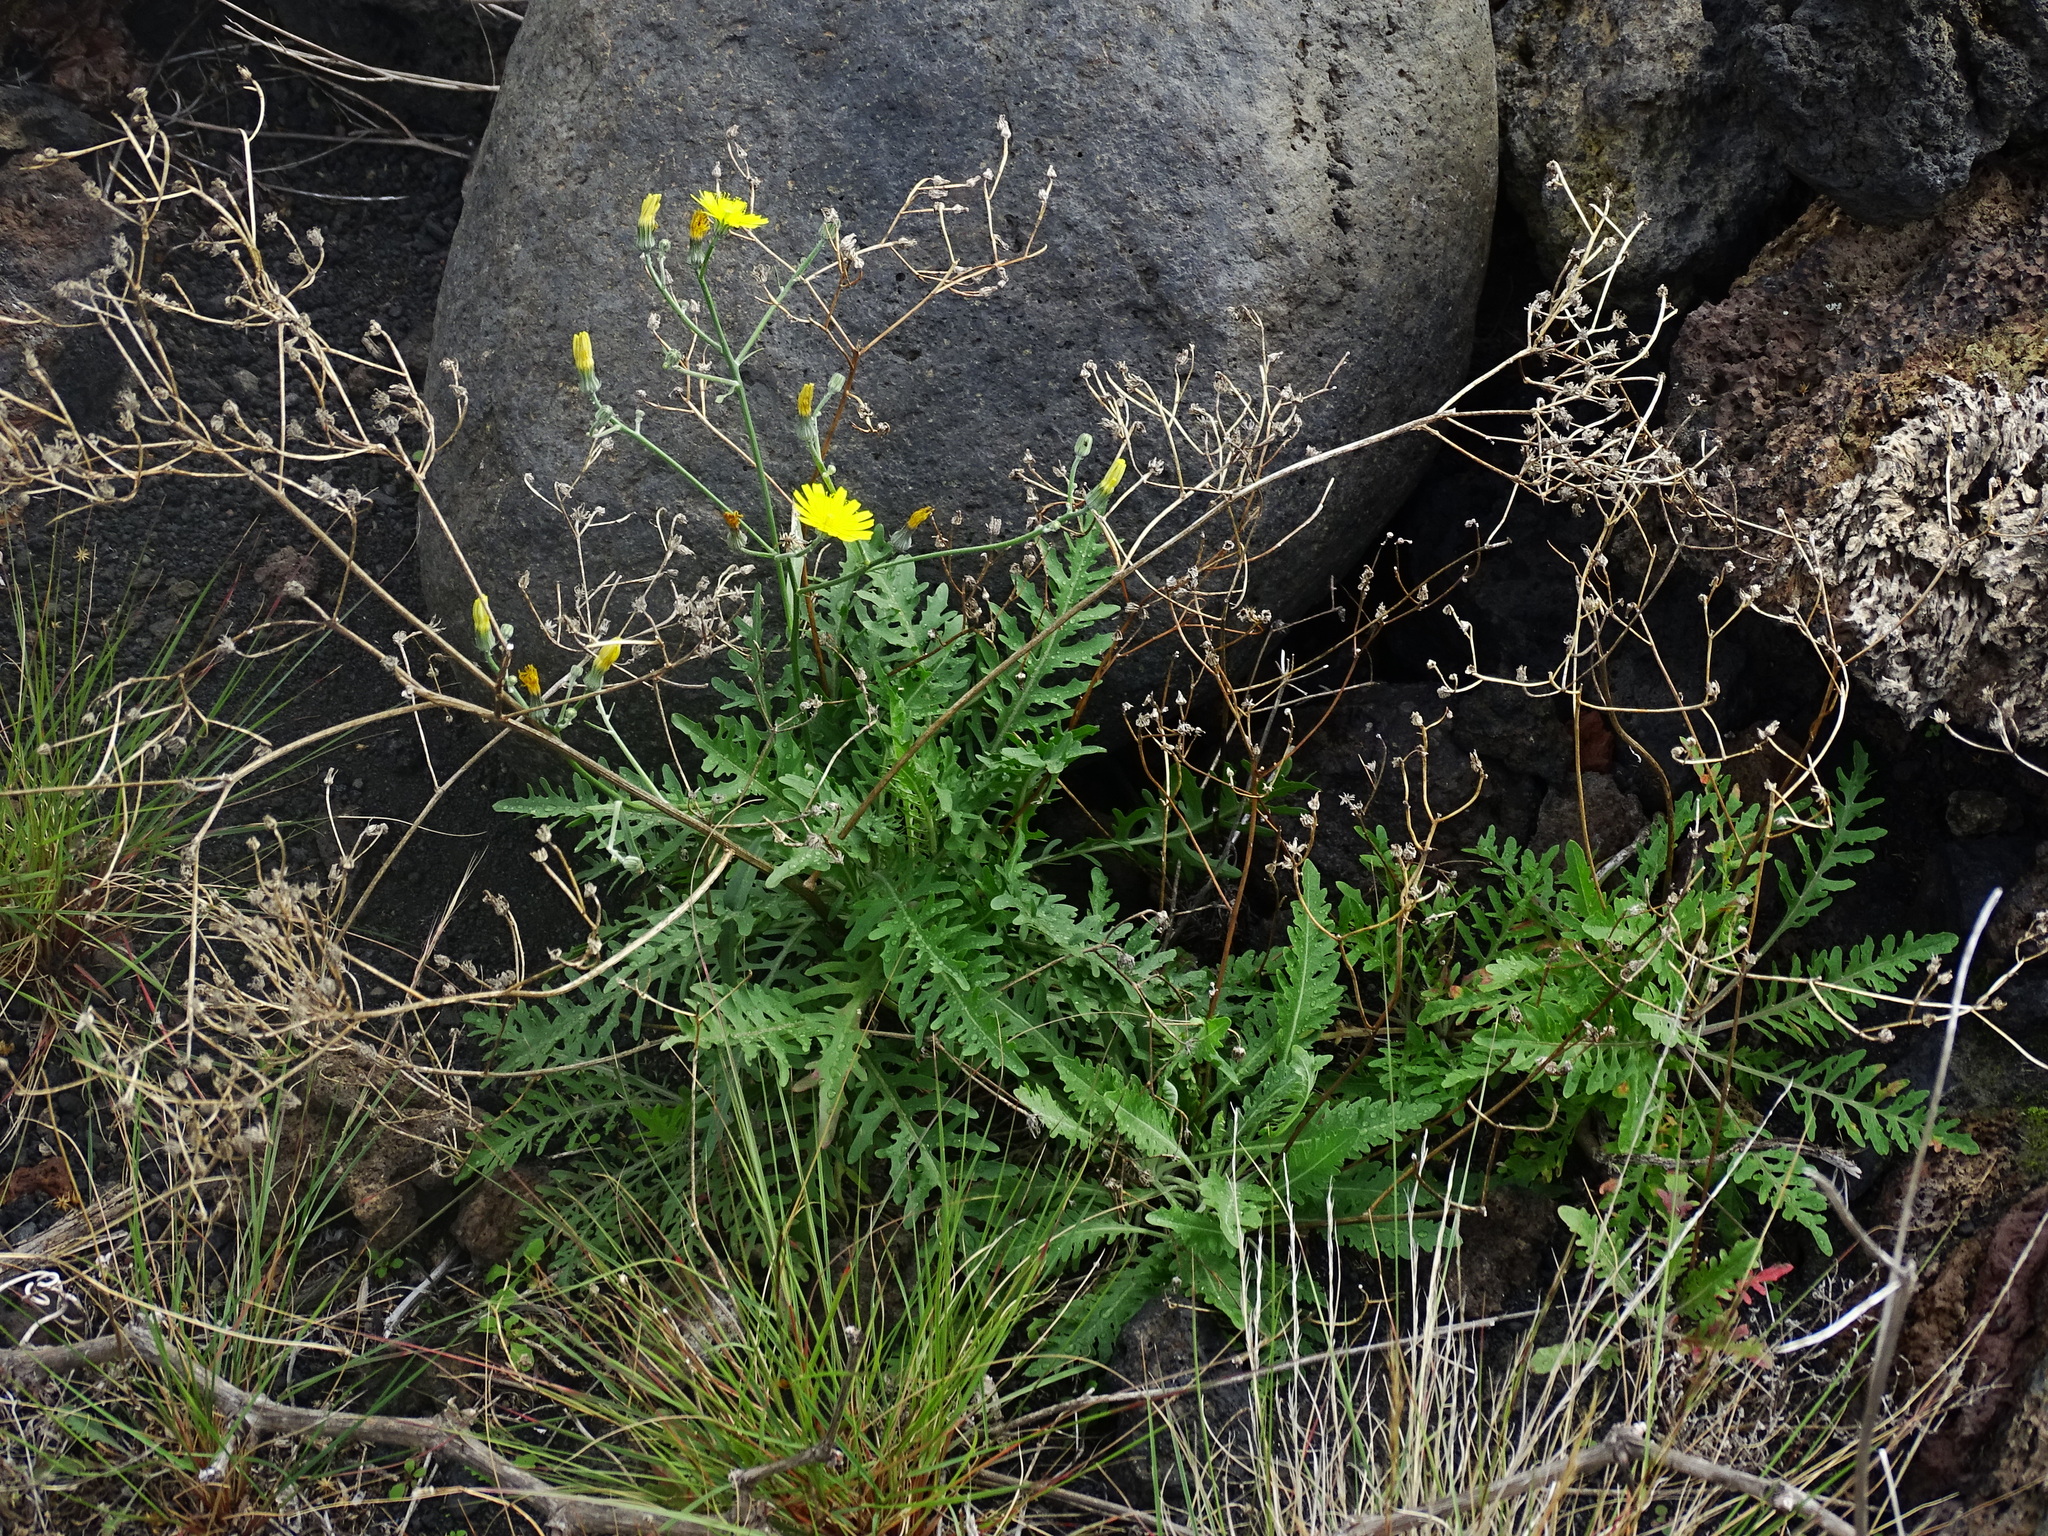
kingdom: Plantae
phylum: Tracheophyta
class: Magnoliopsida
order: Asterales
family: Asteraceae
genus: Tolpis
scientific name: Tolpis laciniata
